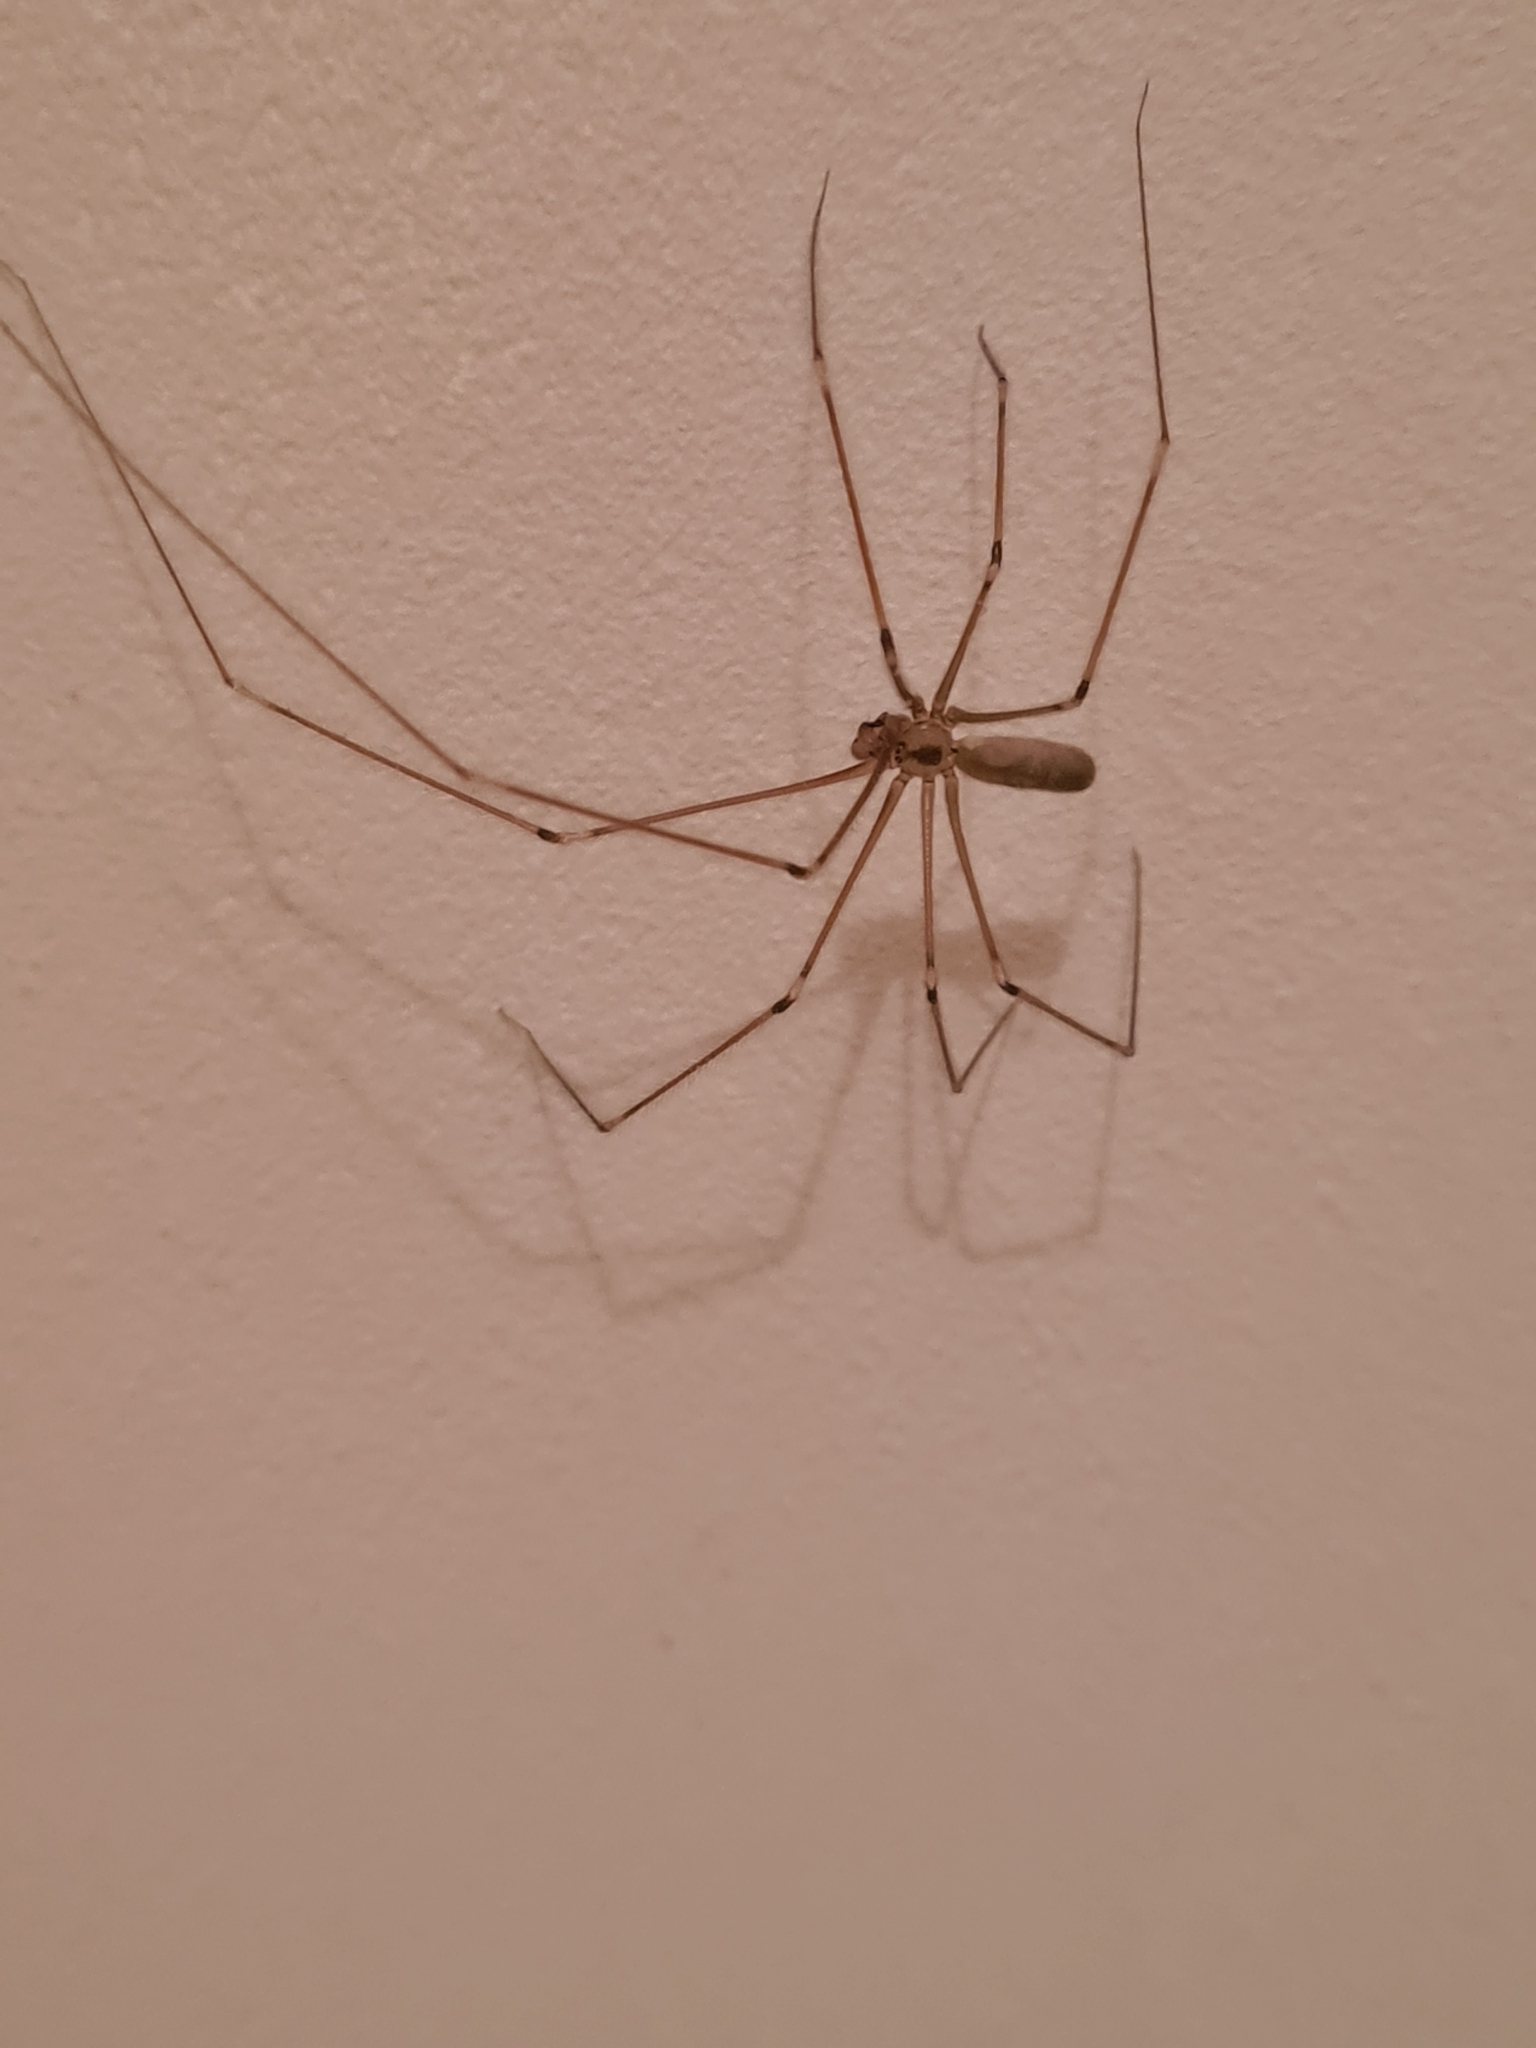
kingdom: Animalia
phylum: Arthropoda
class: Arachnida
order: Araneae
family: Pholcidae
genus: Pholcus
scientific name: Pholcus phalangioides
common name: Longbodied cellar spider
